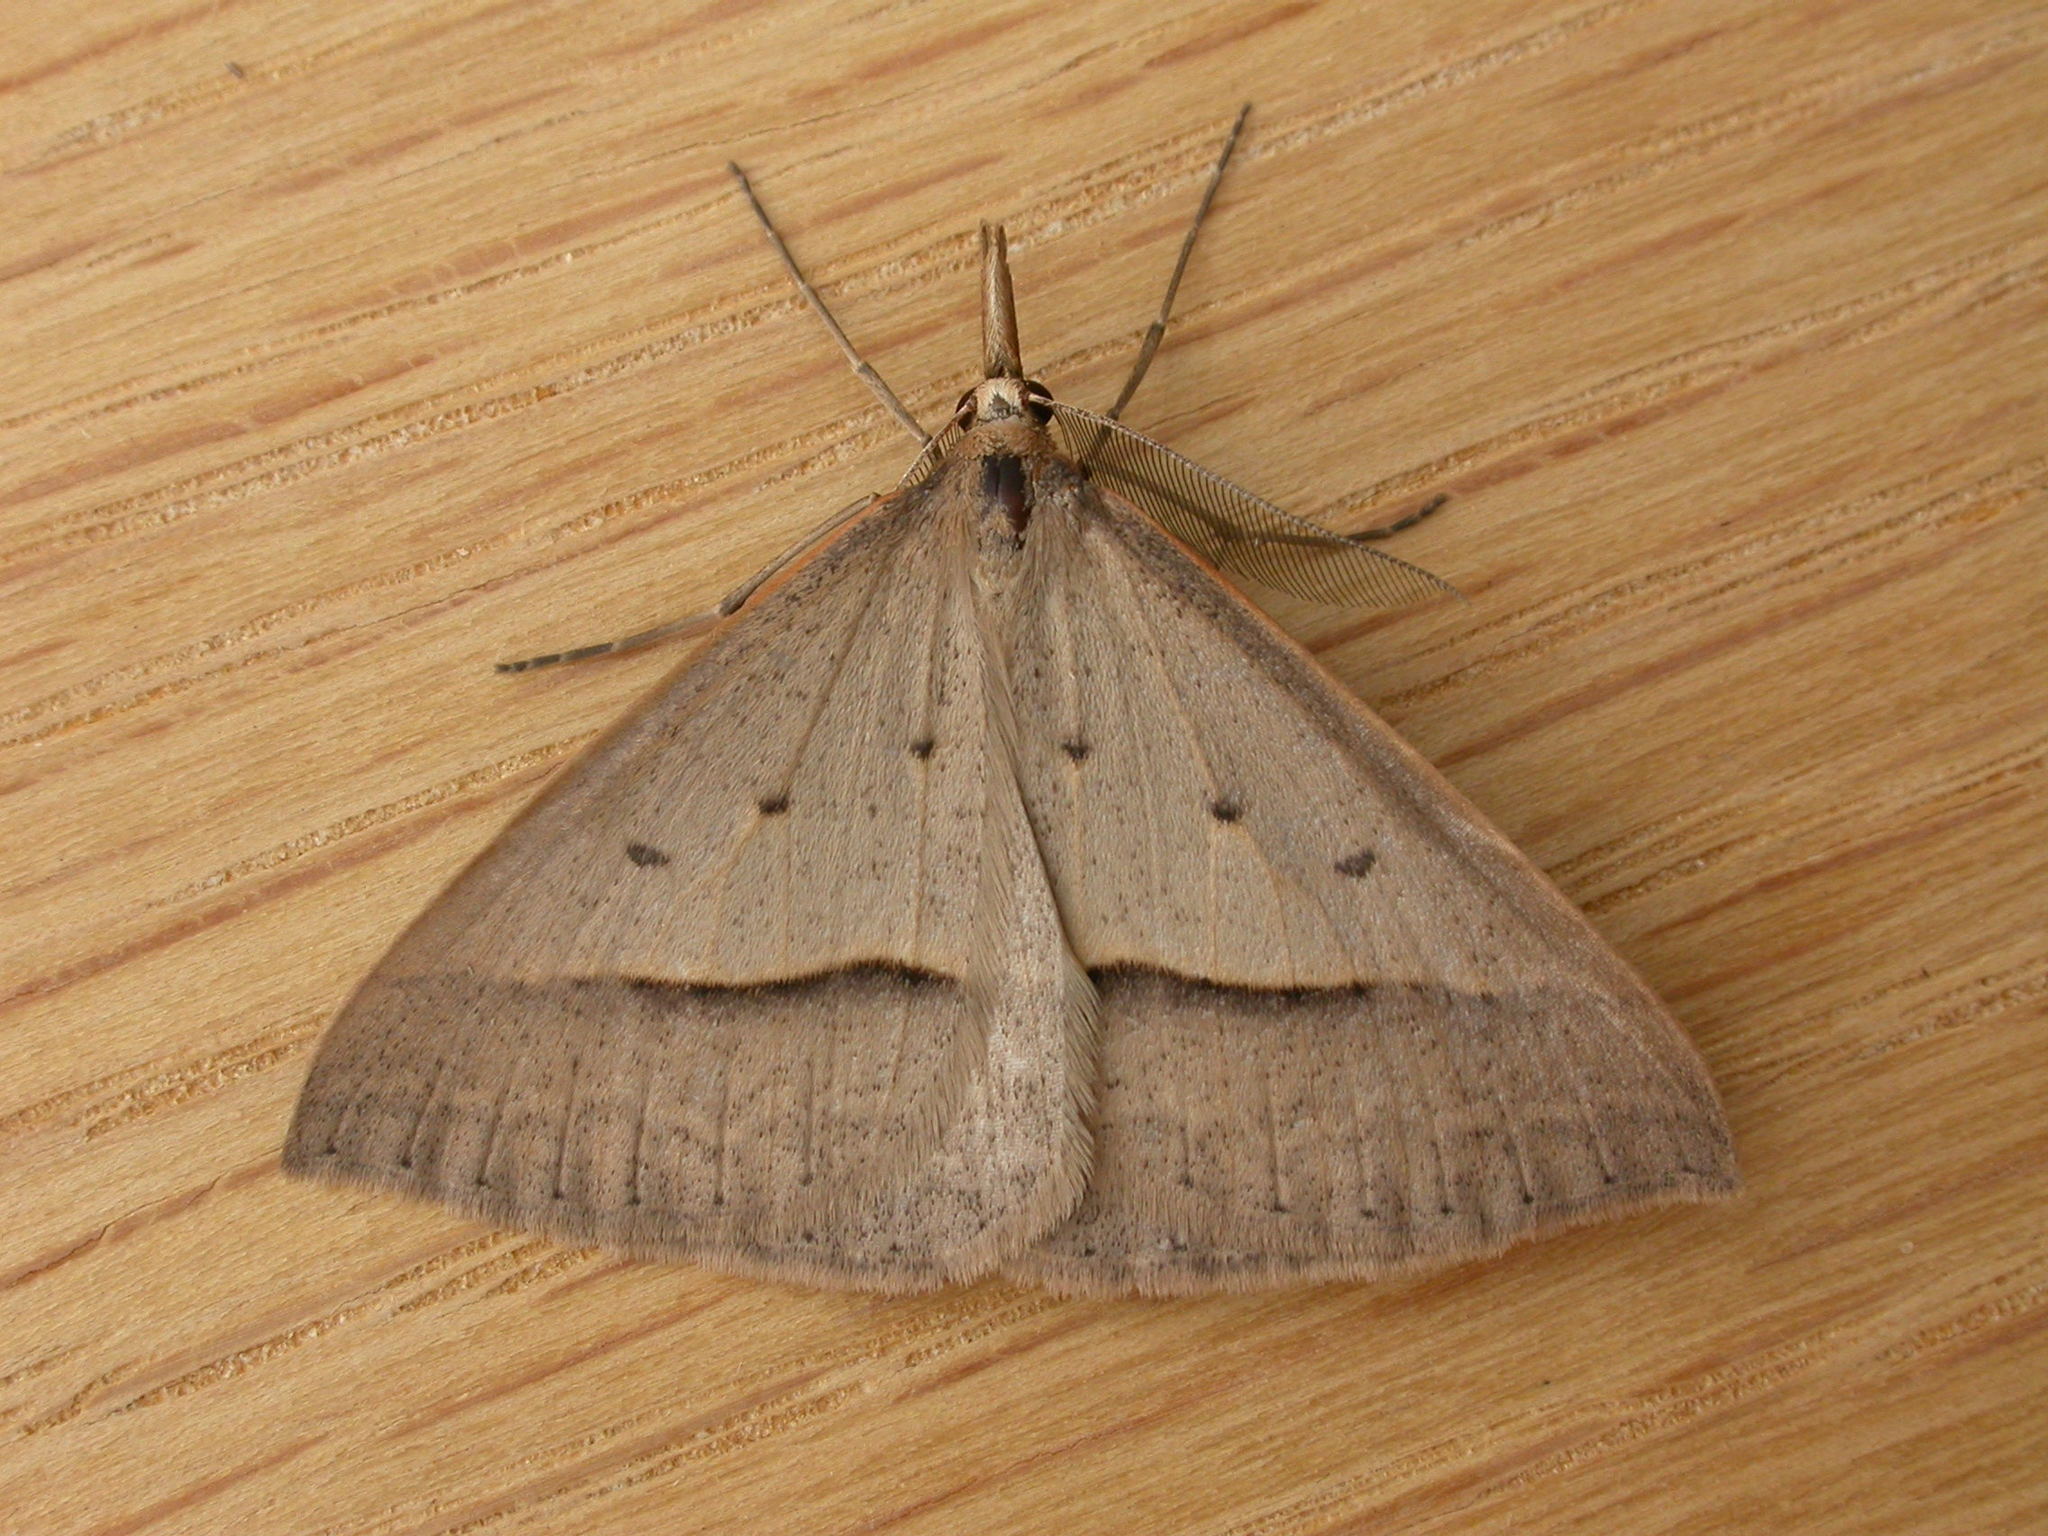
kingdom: Animalia
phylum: Arthropoda
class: Insecta
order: Lepidoptera
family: Geometridae
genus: Epidesmia
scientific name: Epidesmia hypenaria
